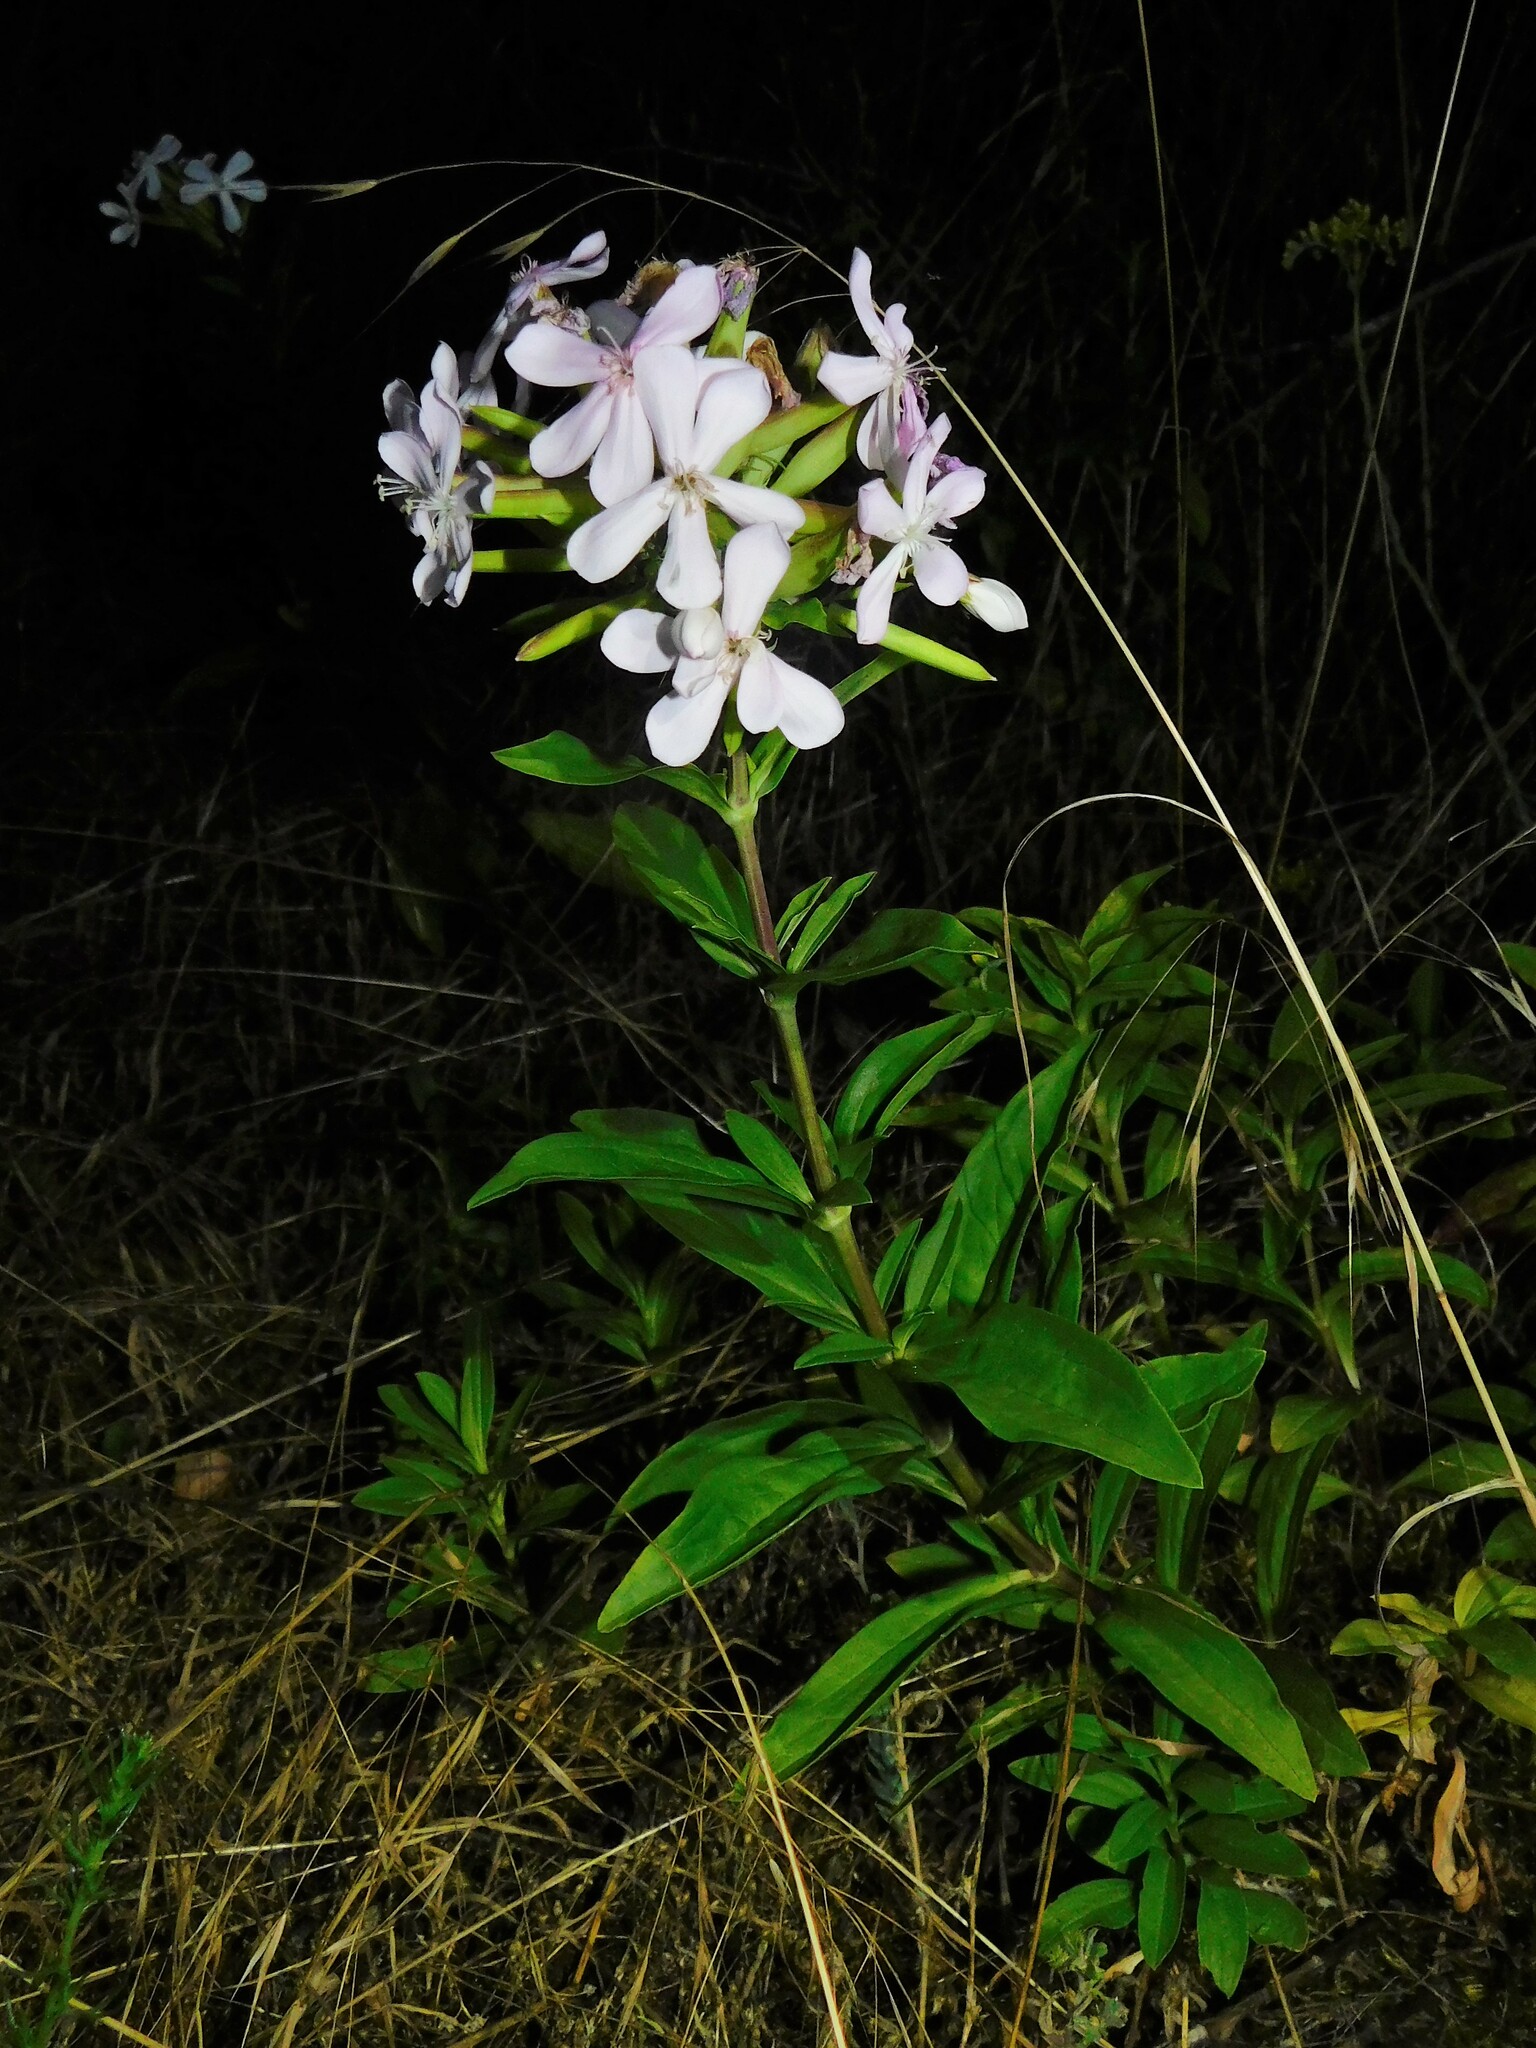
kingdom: Plantae
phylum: Tracheophyta
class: Magnoliopsida
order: Caryophyllales
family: Caryophyllaceae
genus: Saponaria
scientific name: Saponaria officinalis
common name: Soapwort
